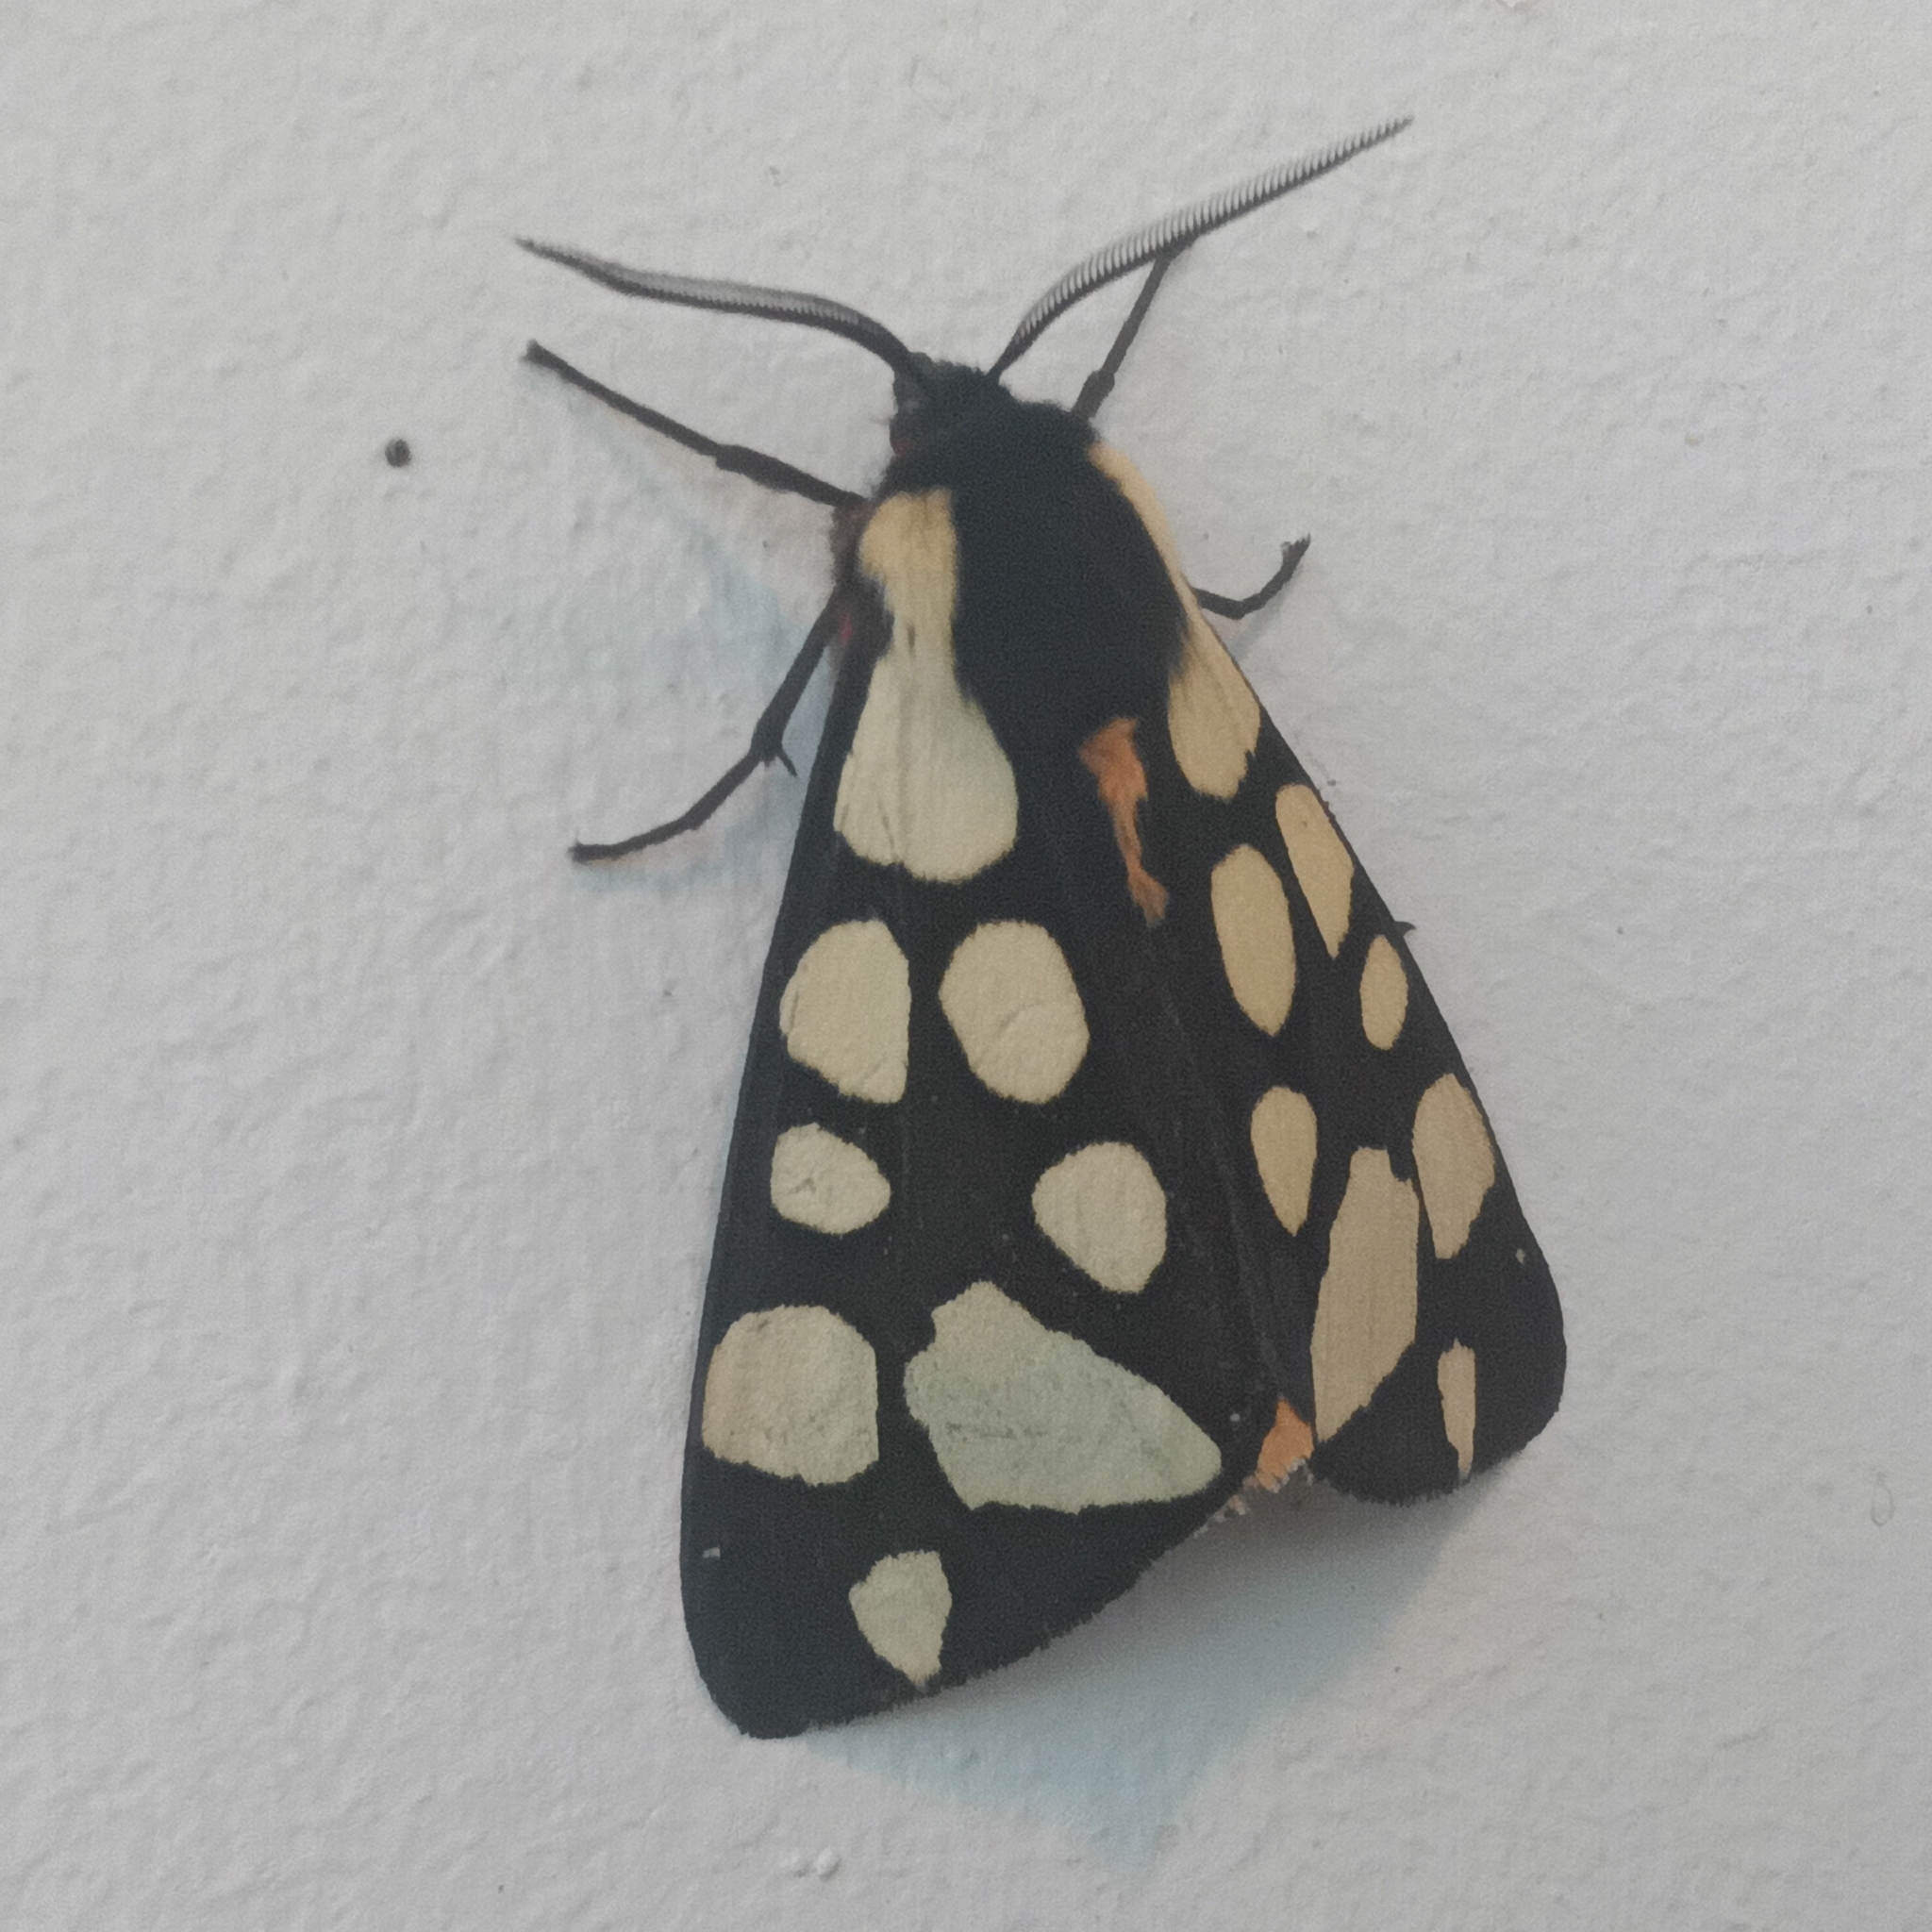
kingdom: Animalia
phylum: Arthropoda
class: Insecta
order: Lepidoptera
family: Erebidae
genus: Epicallia
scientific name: Epicallia villica
